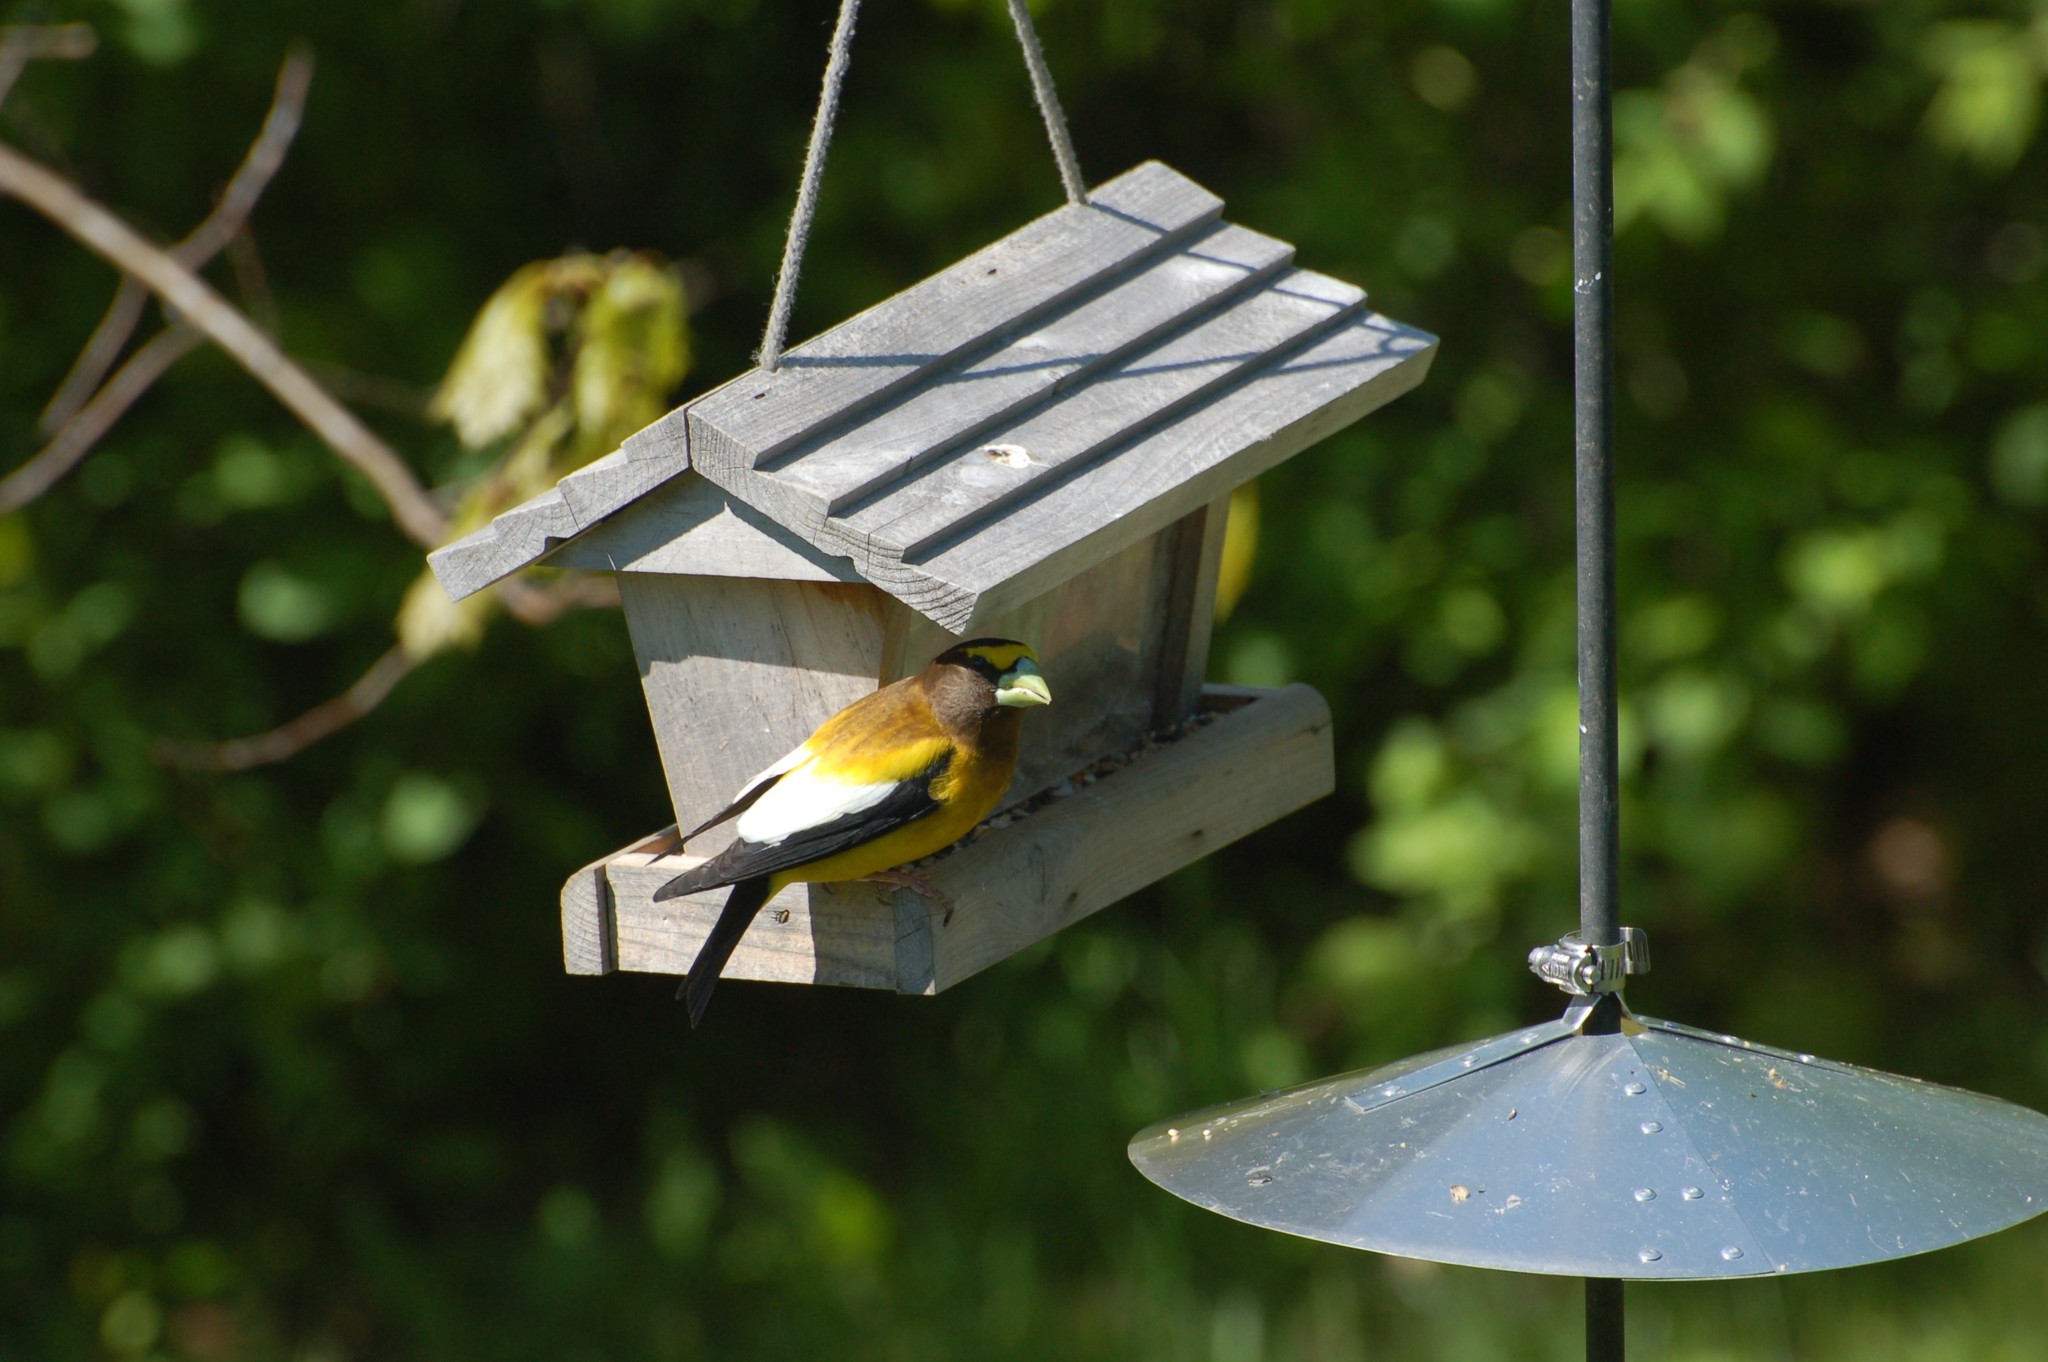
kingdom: Animalia
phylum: Chordata
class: Aves
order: Passeriformes
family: Fringillidae
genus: Hesperiphona
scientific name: Hesperiphona vespertina
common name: Evening grosbeak
